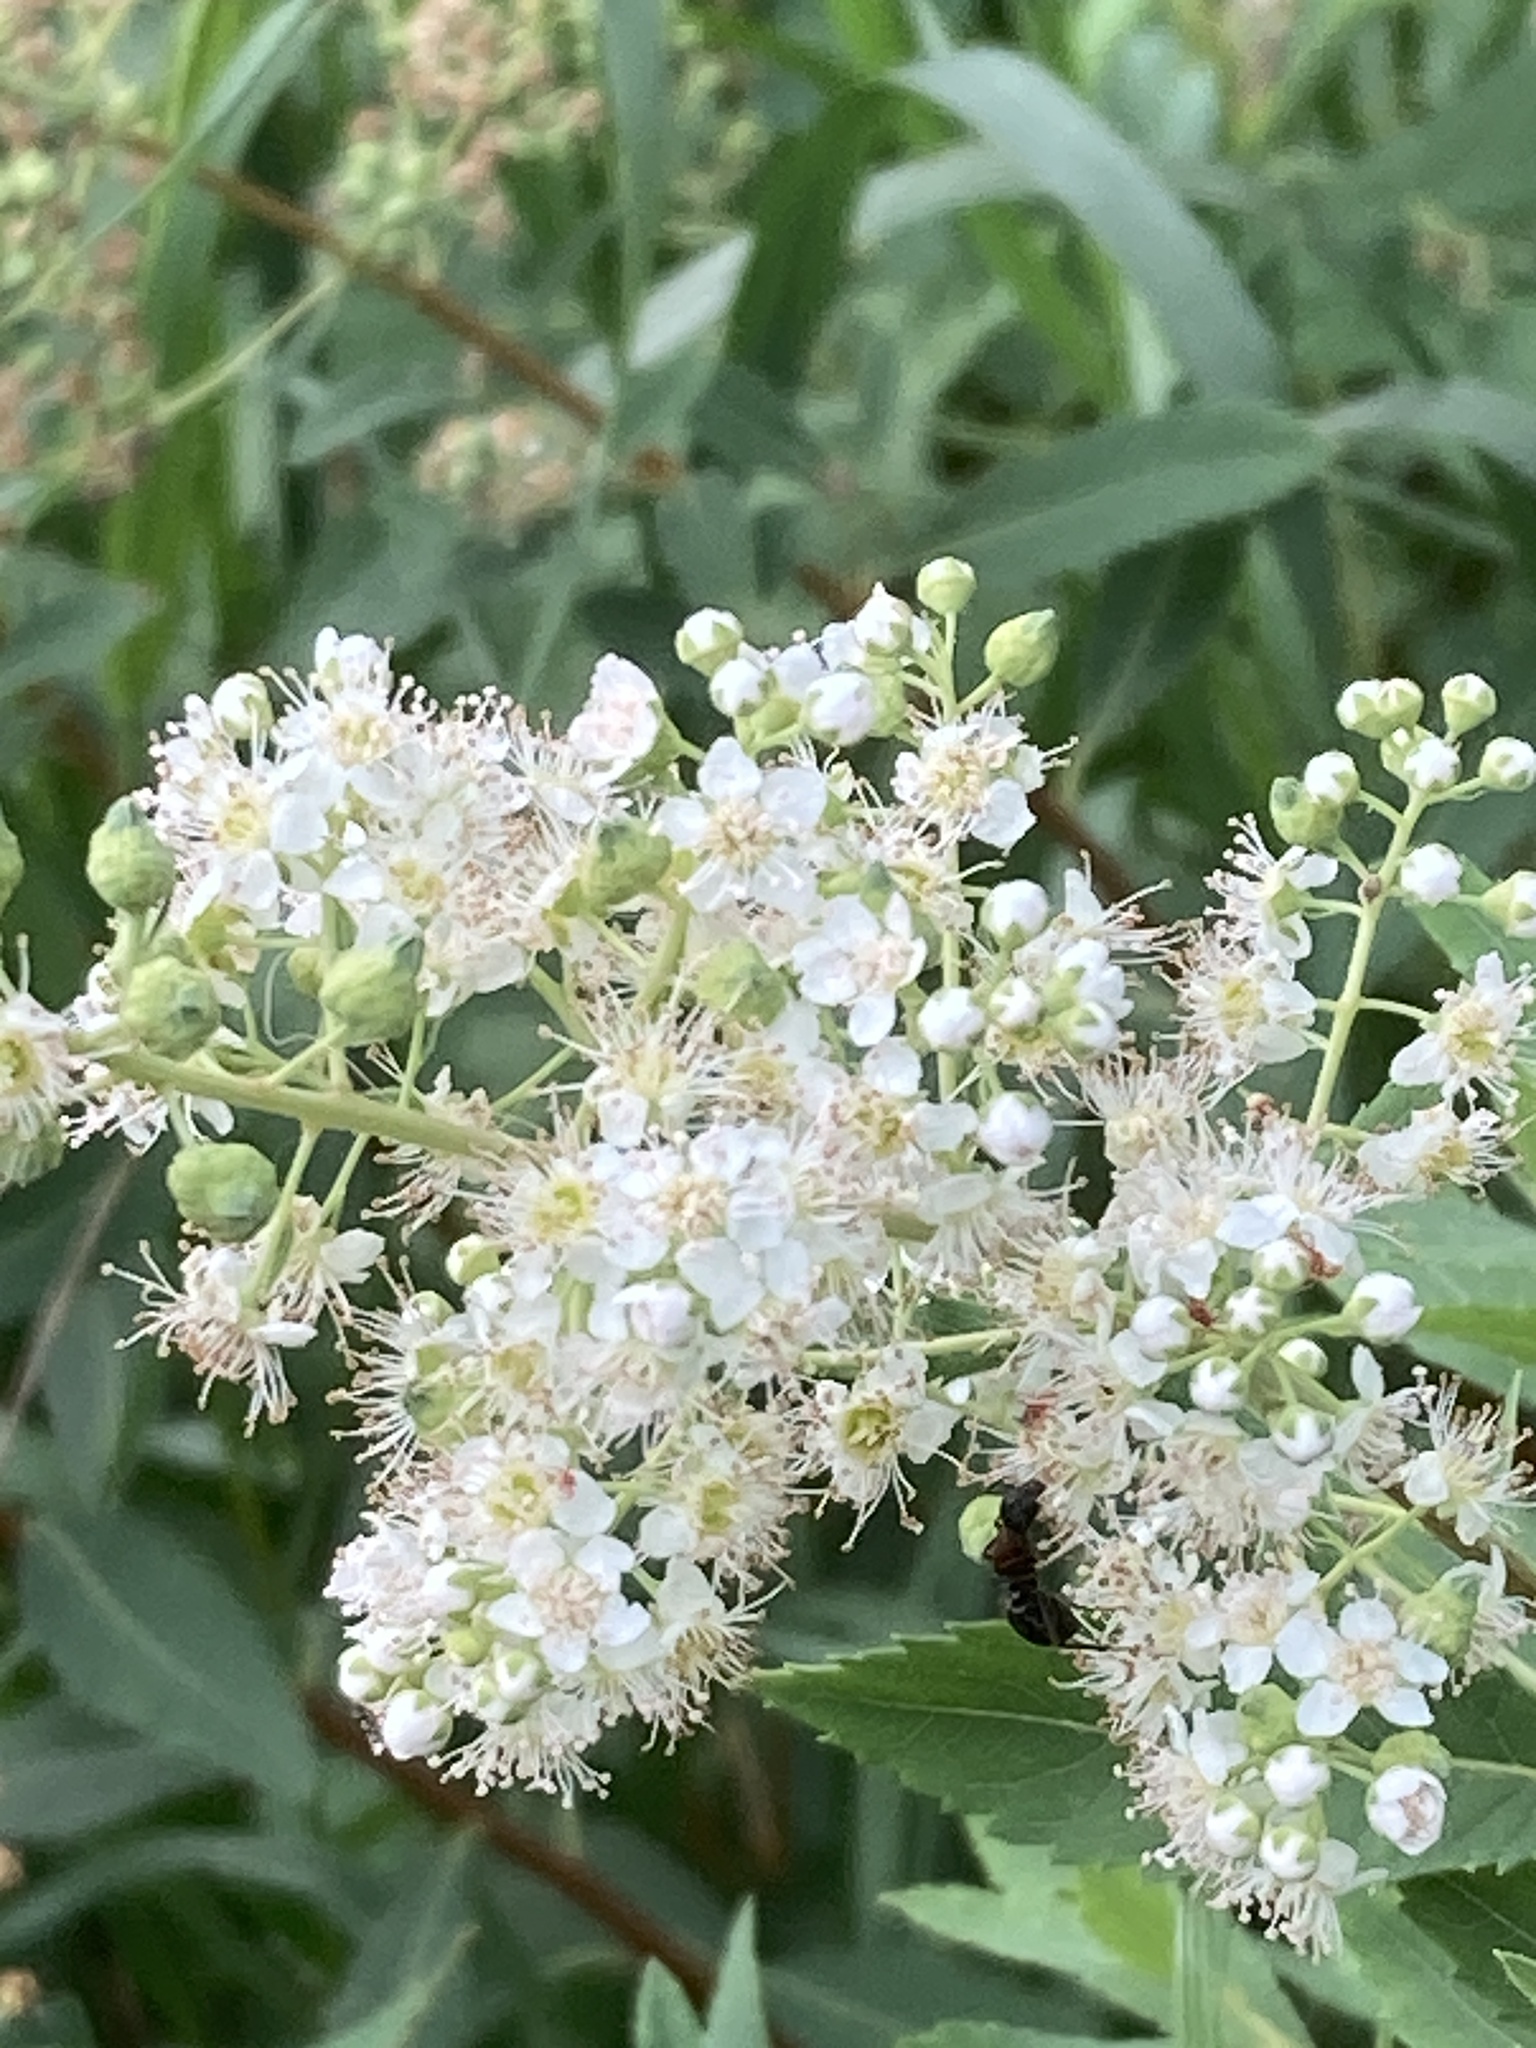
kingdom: Plantae
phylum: Tracheophyta
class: Magnoliopsida
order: Rosales
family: Rosaceae
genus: Spiraea
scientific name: Spiraea alba
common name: Pale bridewort
